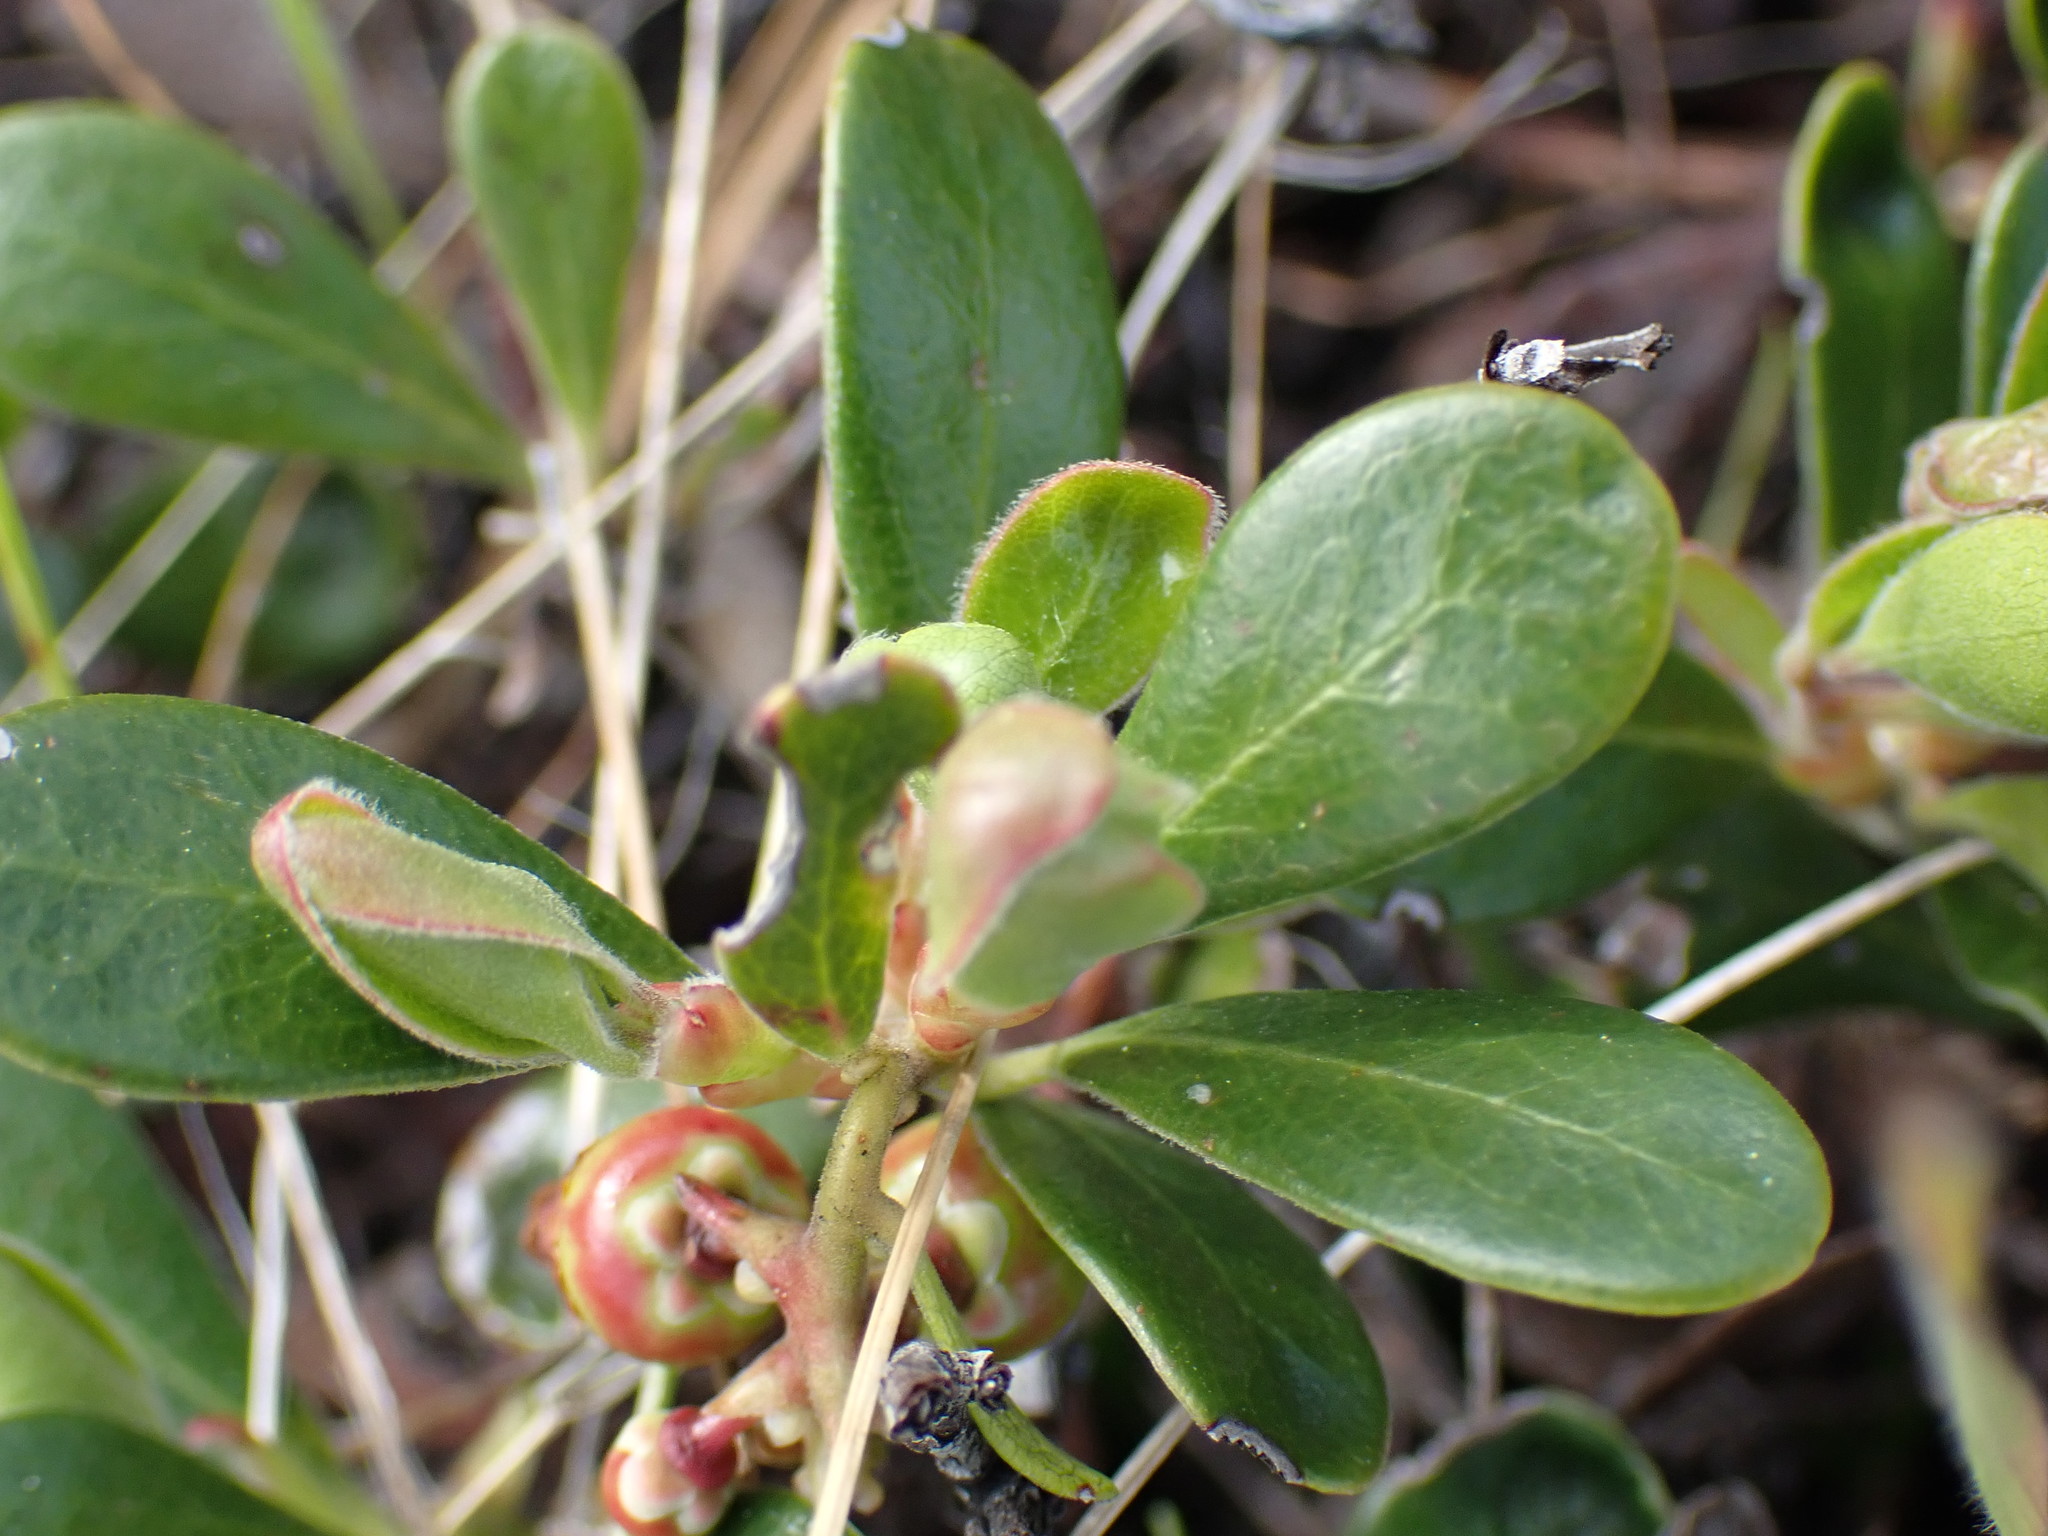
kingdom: Plantae
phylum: Tracheophyta
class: Magnoliopsida
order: Ericales
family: Ericaceae
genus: Arctostaphylos
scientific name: Arctostaphylos uva-ursi
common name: Bearberry
